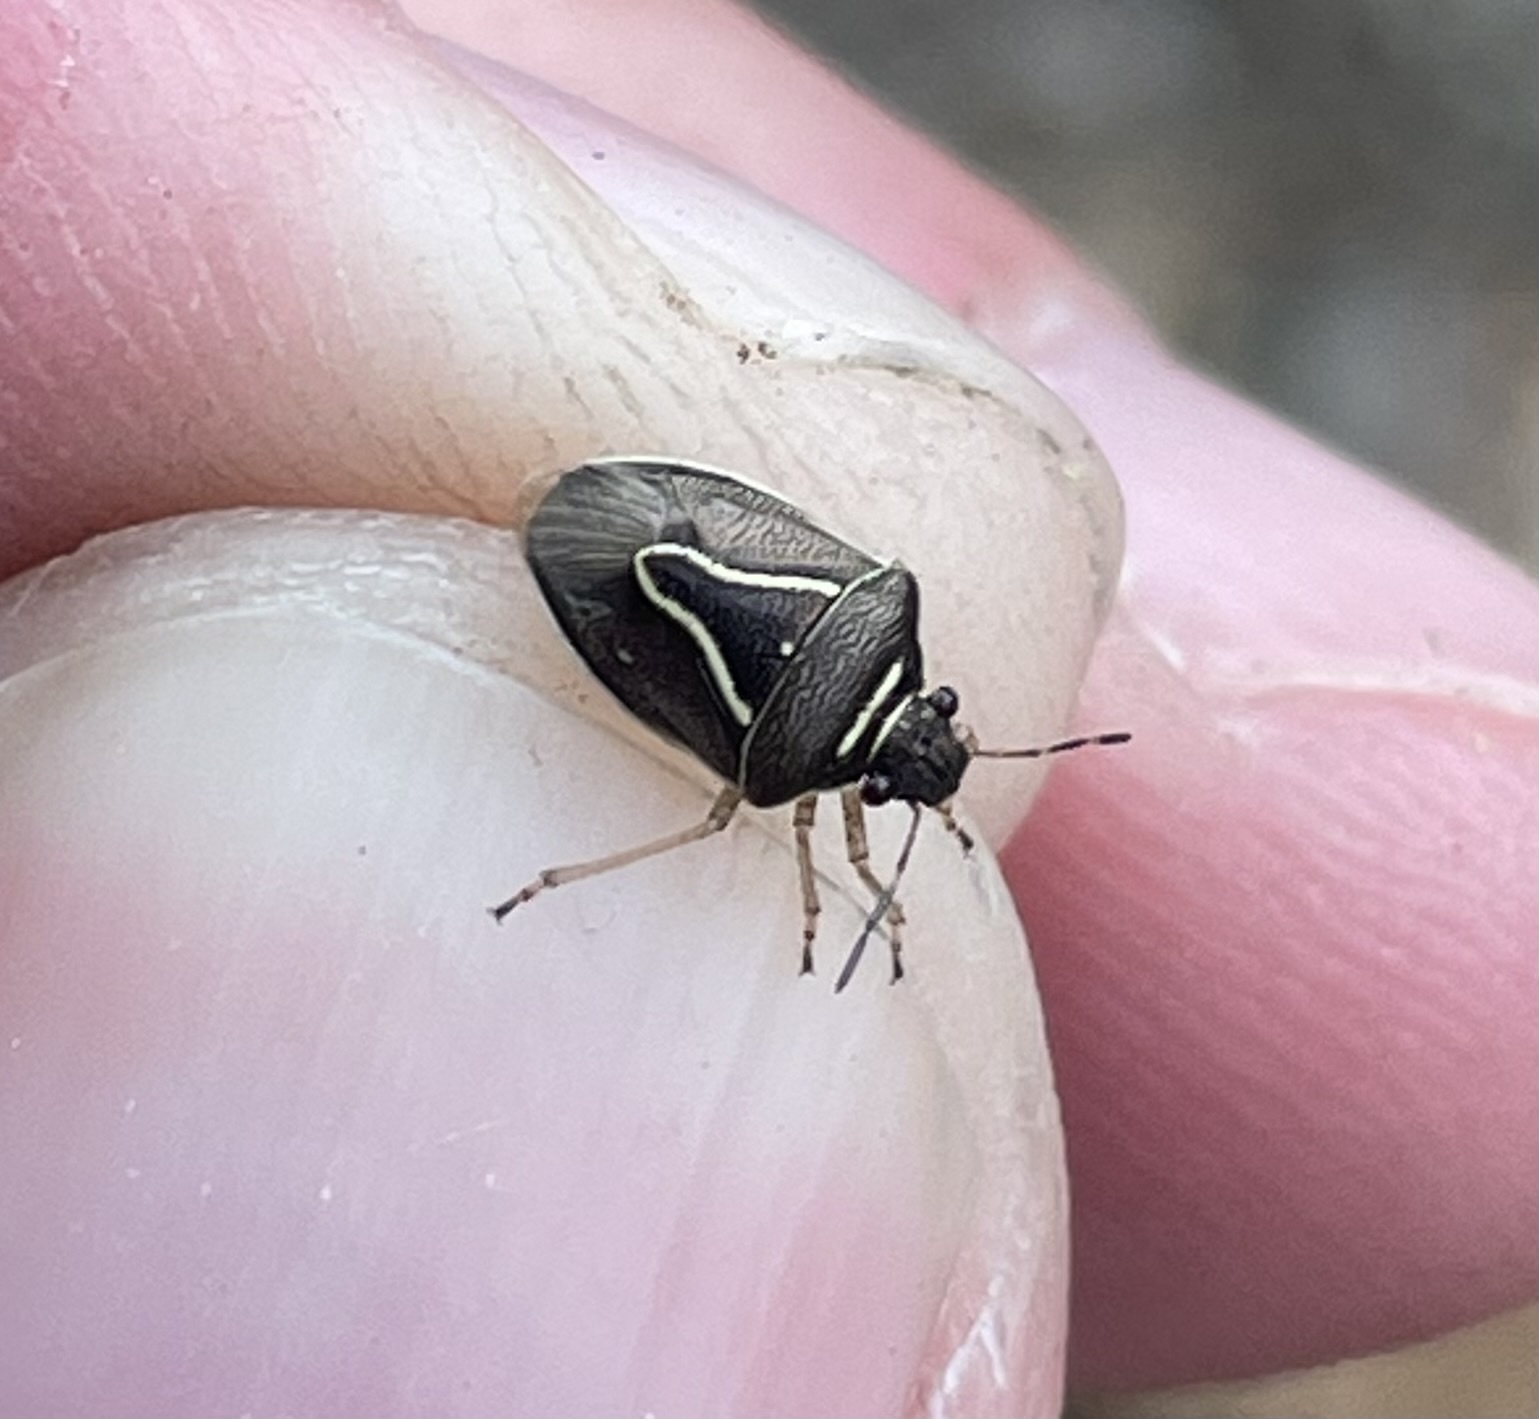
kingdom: Animalia
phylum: Arthropoda
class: Insecta
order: Hemiptera
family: Pentatomidae
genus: Mormidea
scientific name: Mormidea lugens
